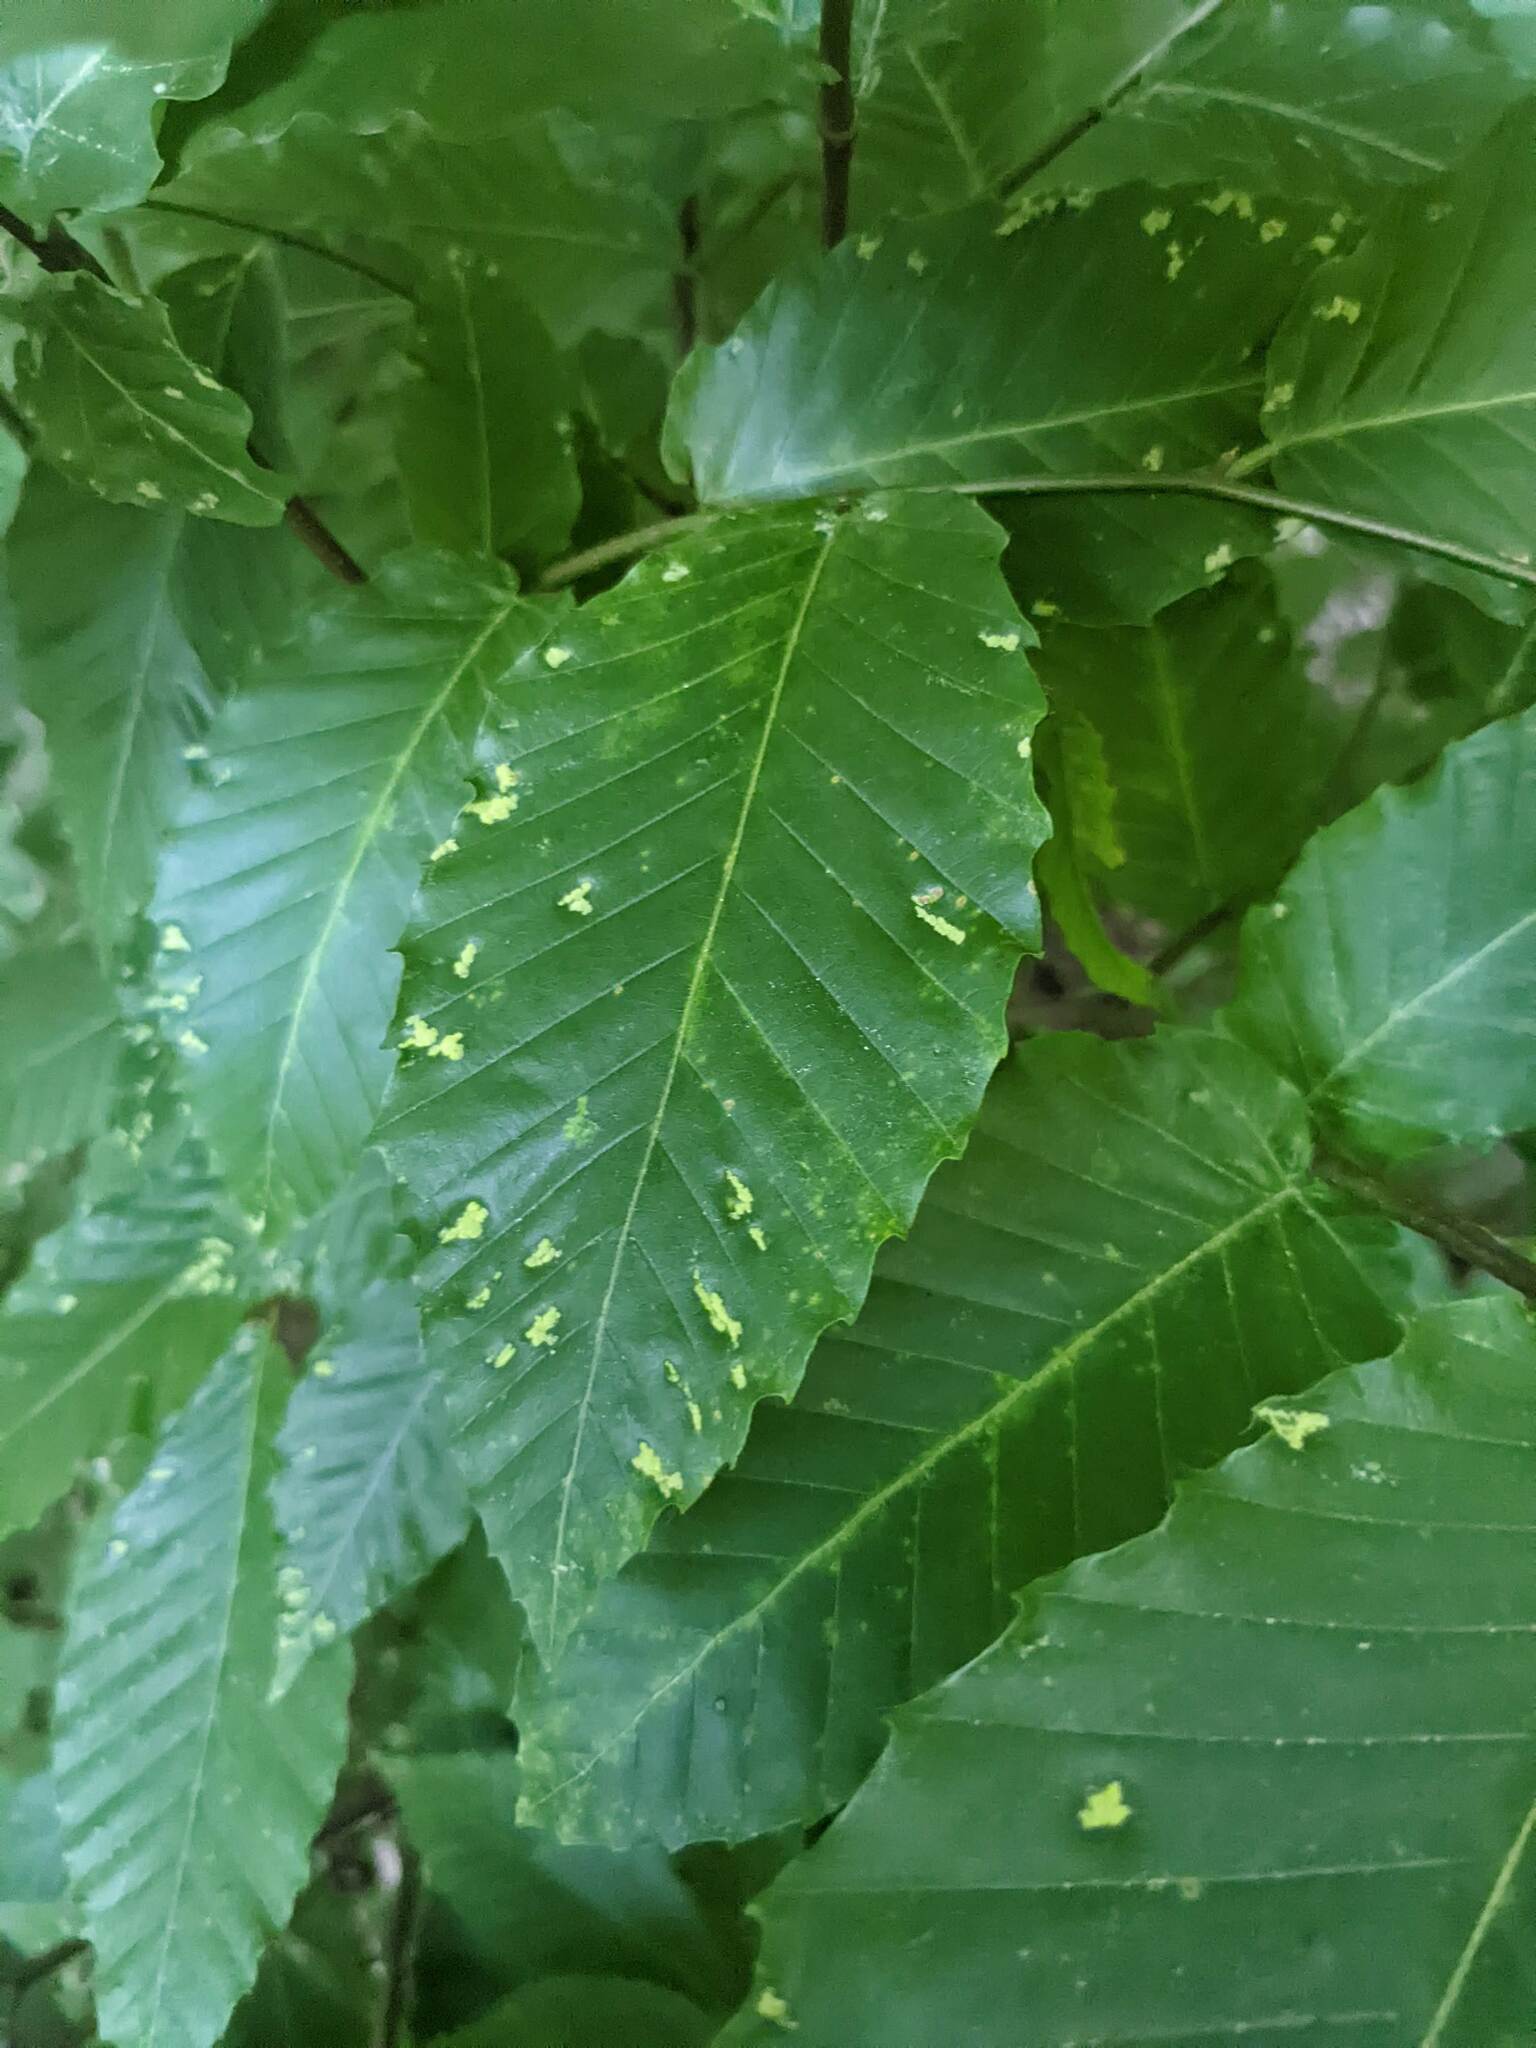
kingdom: Animalia
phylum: Arthropoda
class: Arachnida
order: Trombidiformes
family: Eriophyidae
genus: Acalitus
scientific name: Acalitus
